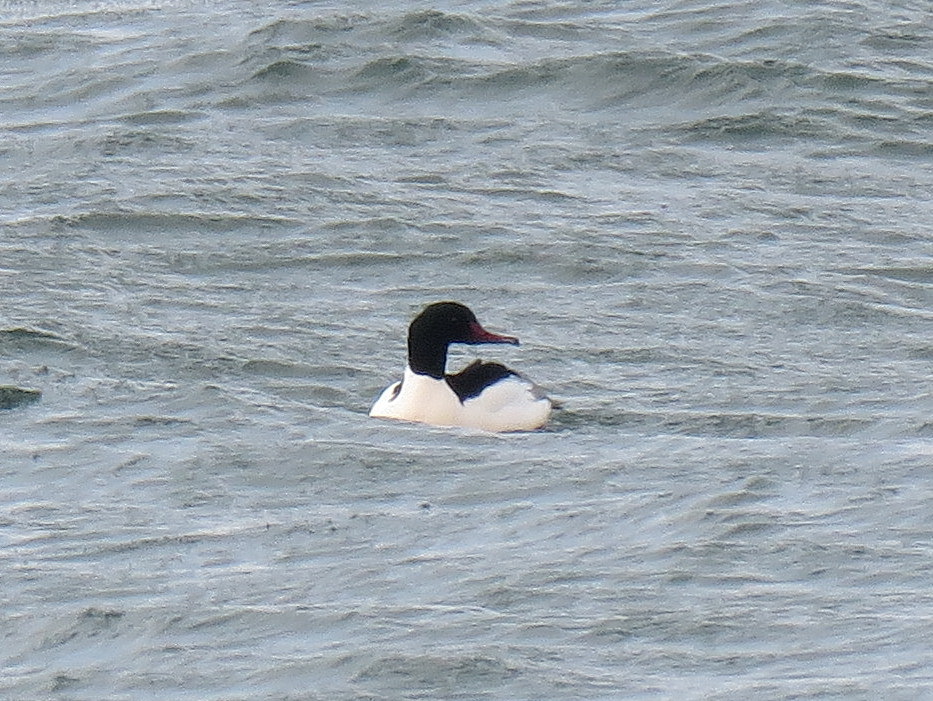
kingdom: Animalia
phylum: Chordata
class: Aves
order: Anseriformes
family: Anatidae
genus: Mergus
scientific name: Mergus merganser
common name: Common merganser
